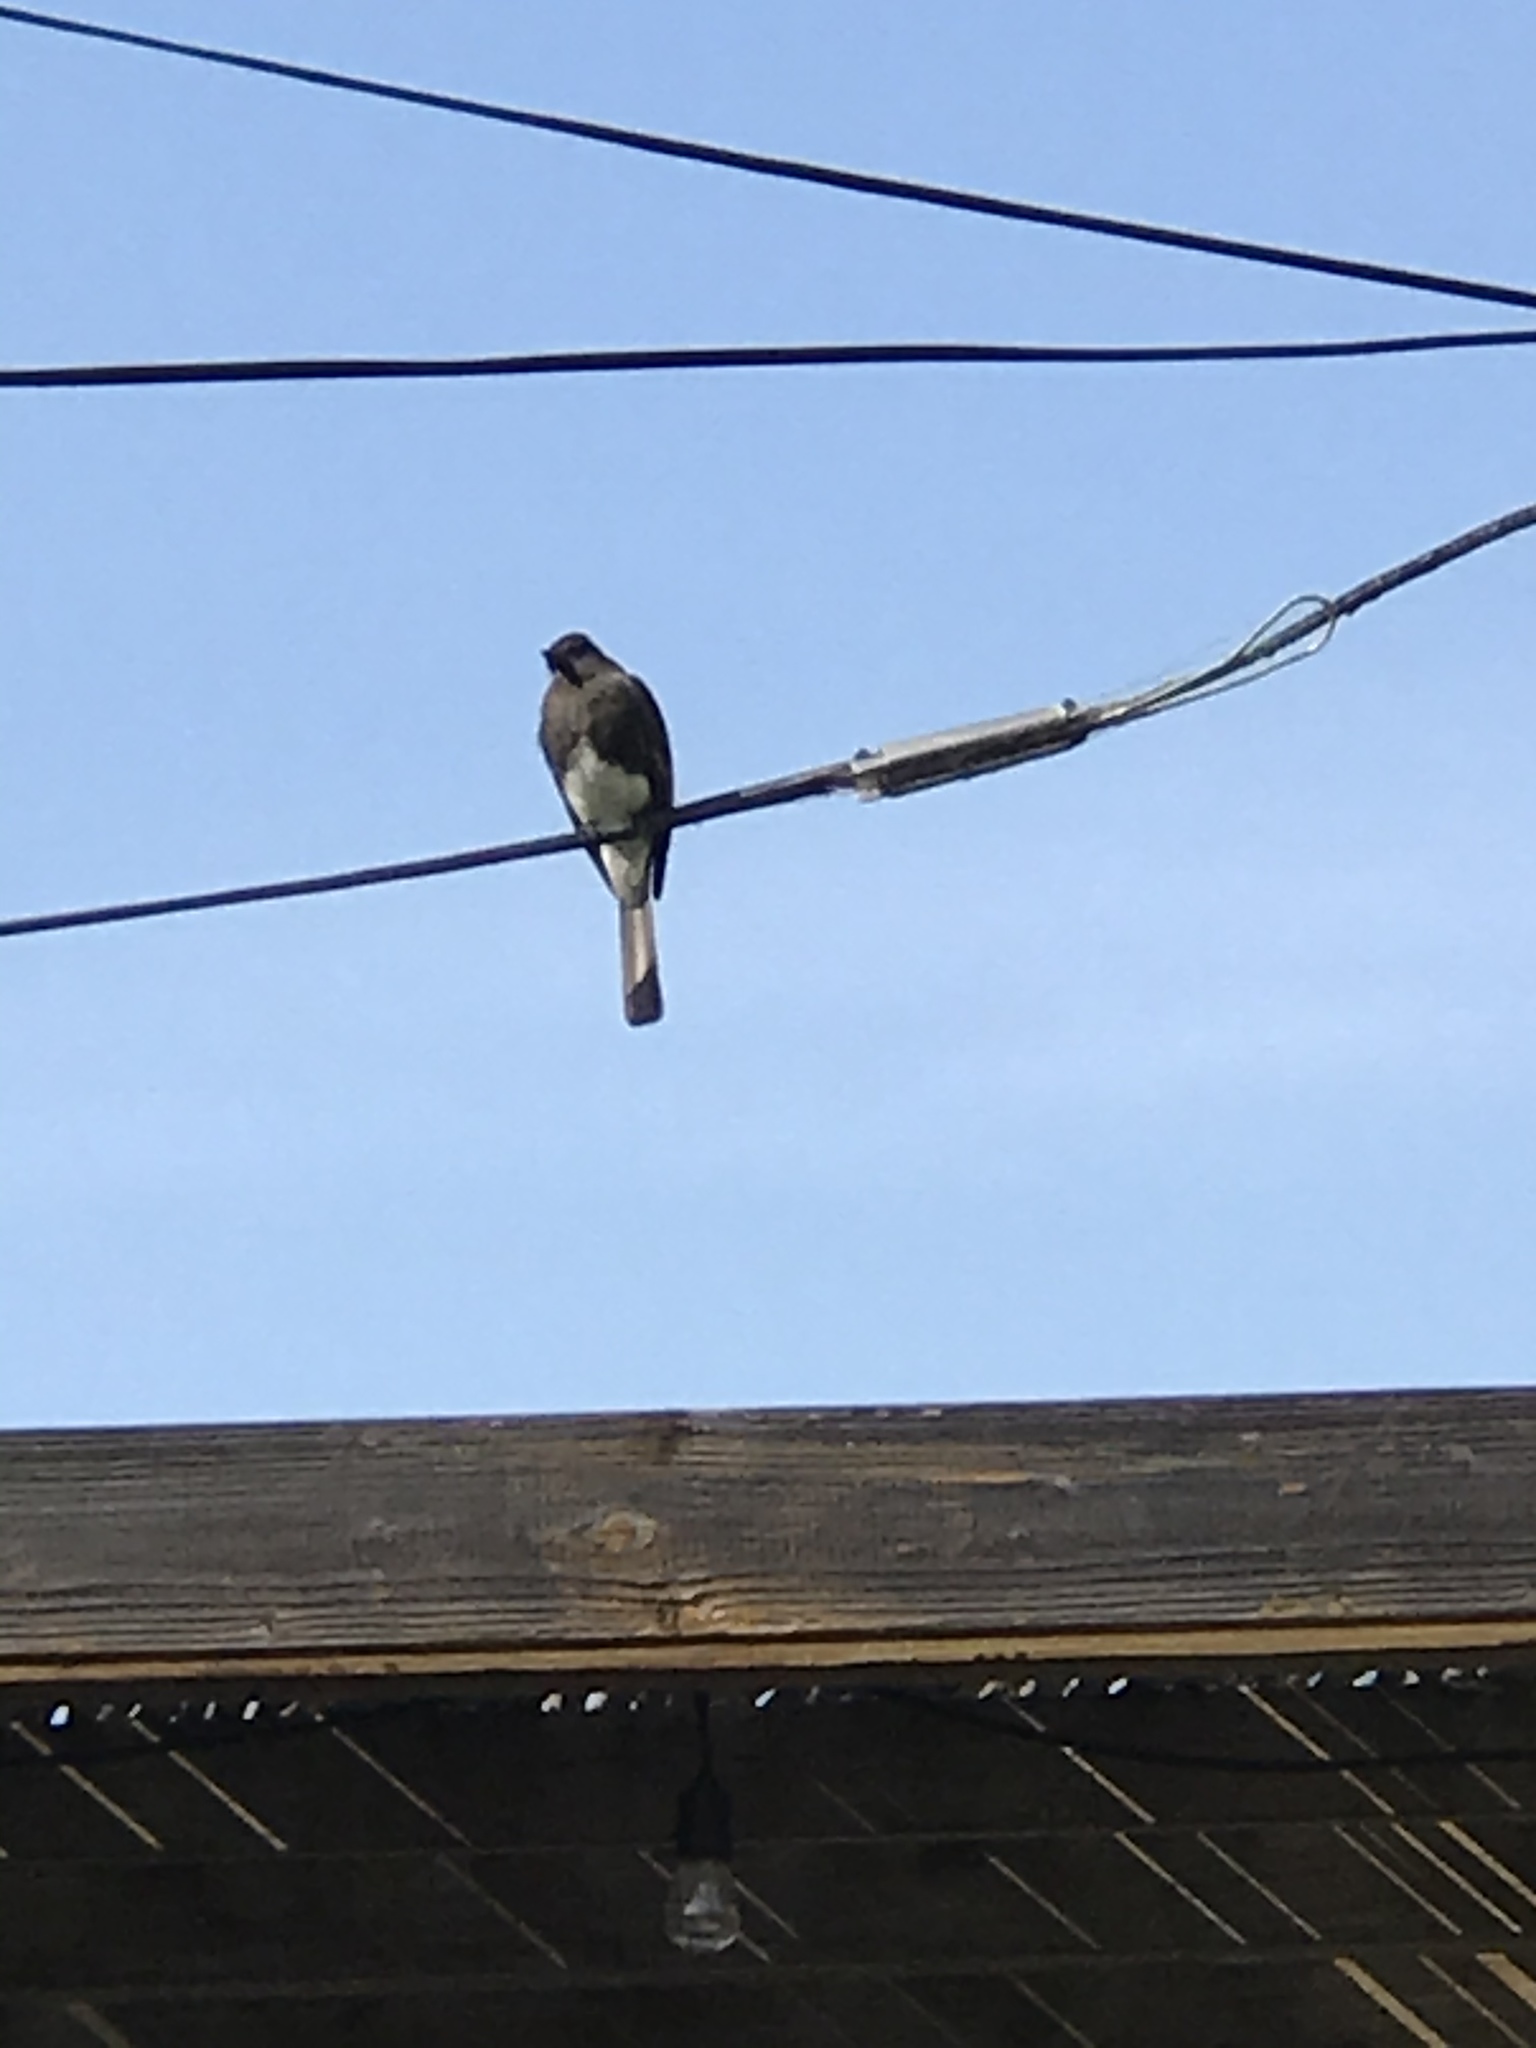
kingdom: Animalia
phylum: Chordata
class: Aves
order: Passeriformes
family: Tyrannidae
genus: Sayornis
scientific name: Sayornis nigricans
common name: Black phoebe
